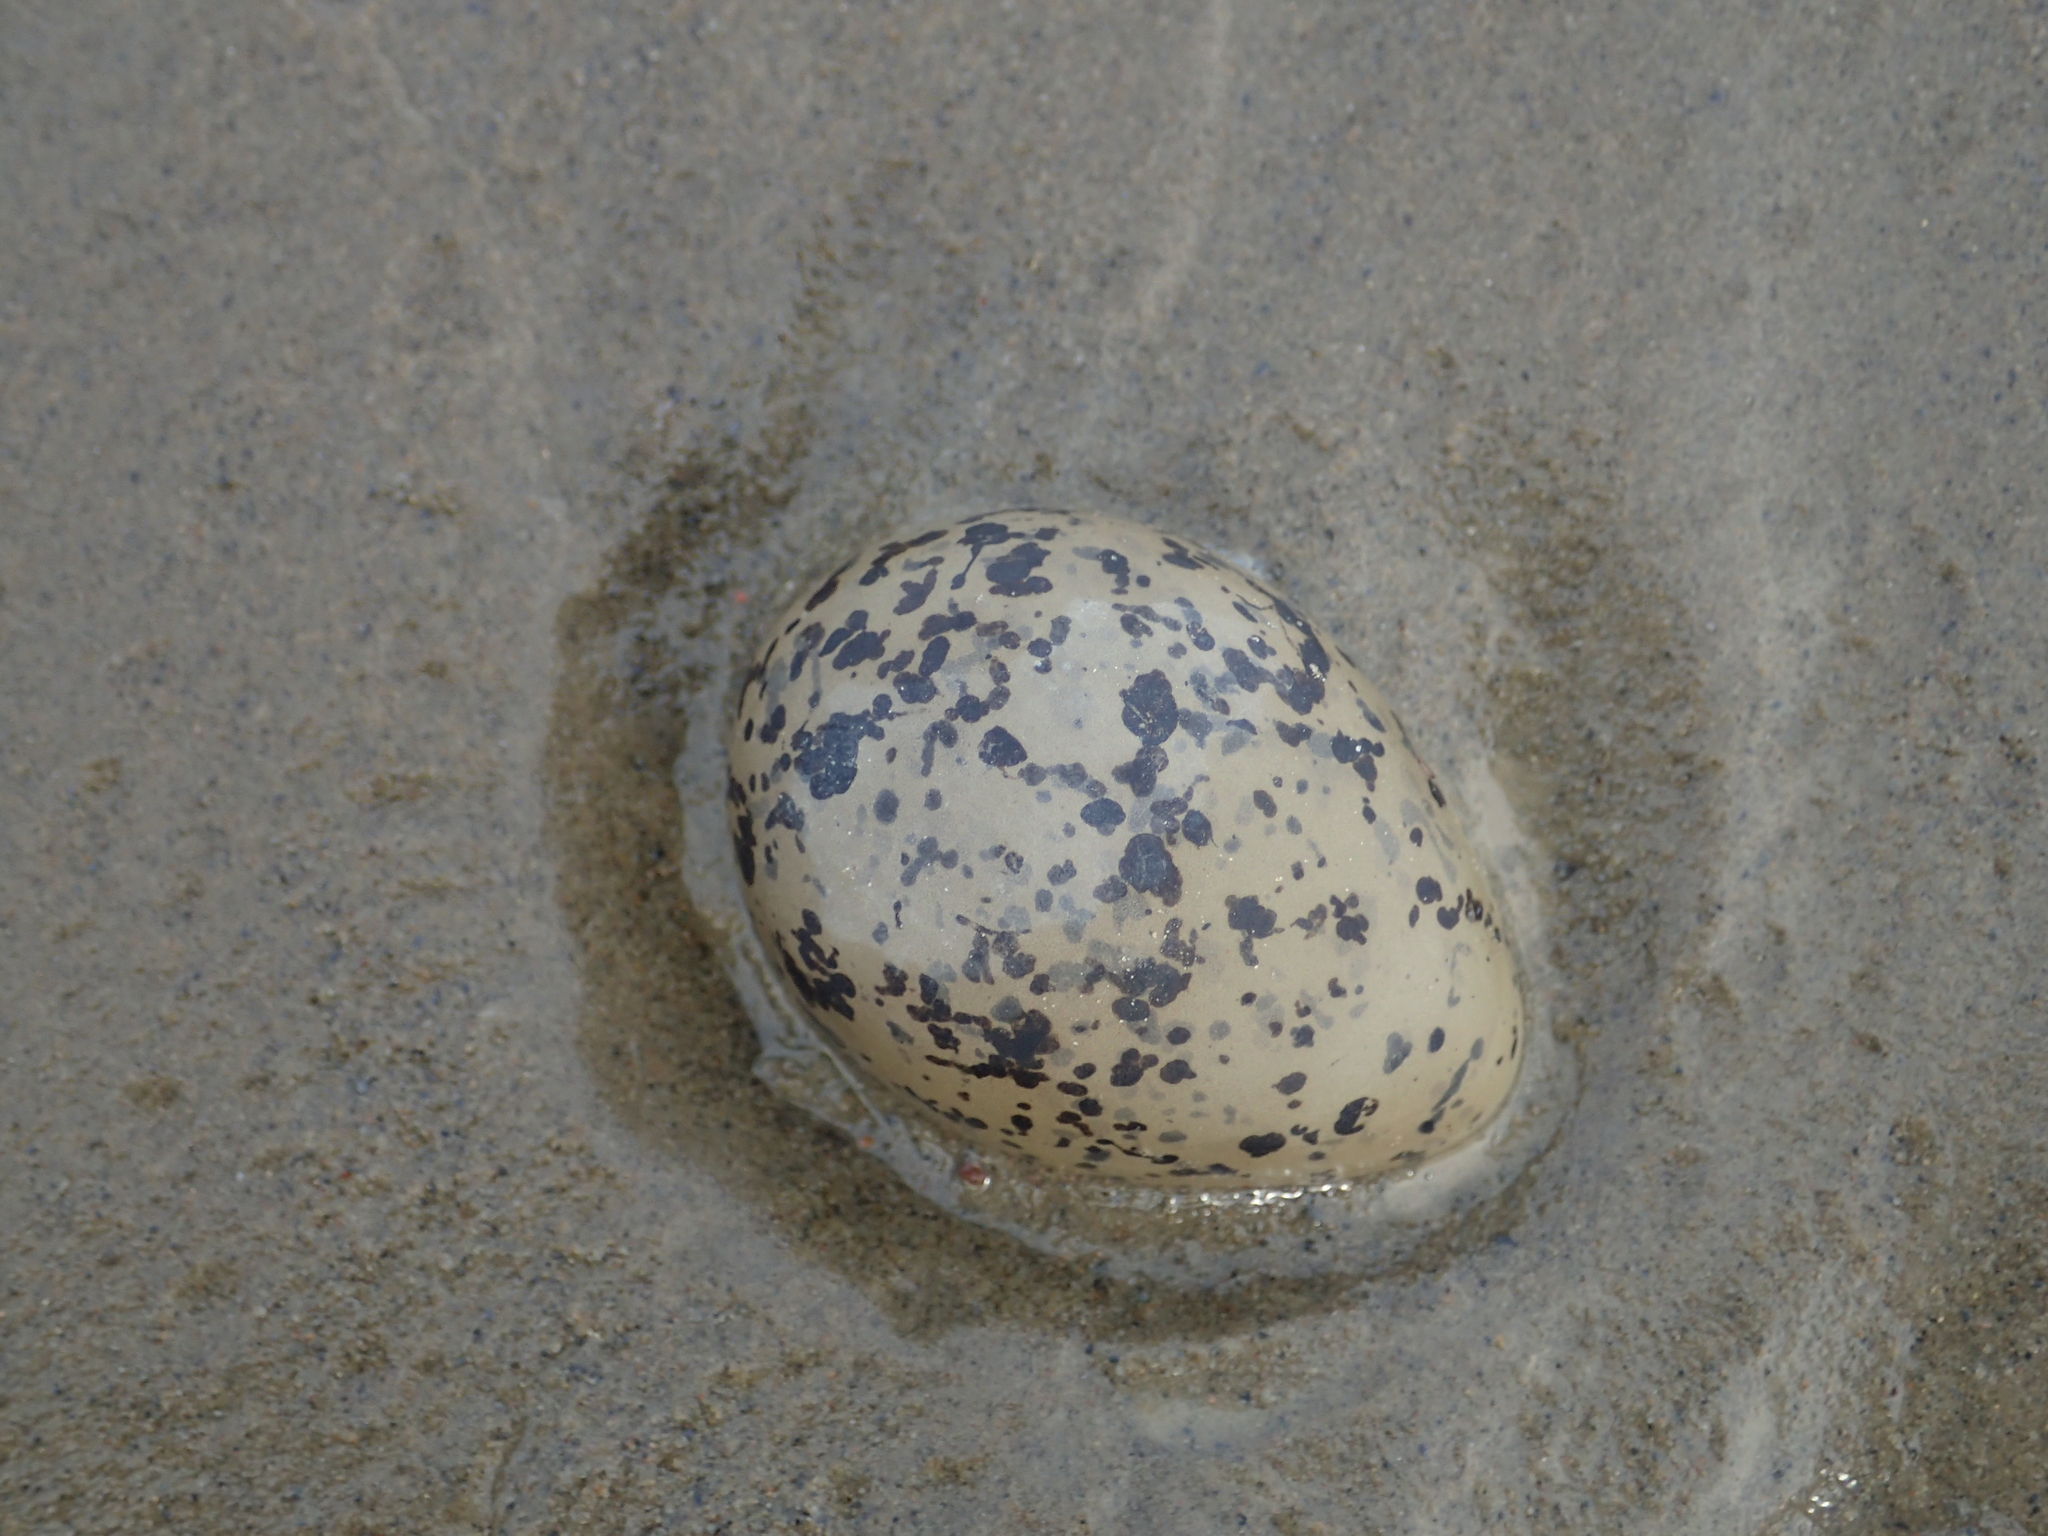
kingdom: Animalia
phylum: Chordata
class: Aves
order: Charadriiformes
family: Charadriidae
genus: Charadrius
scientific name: Charadrius alexandrinus
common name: Kentish plover
